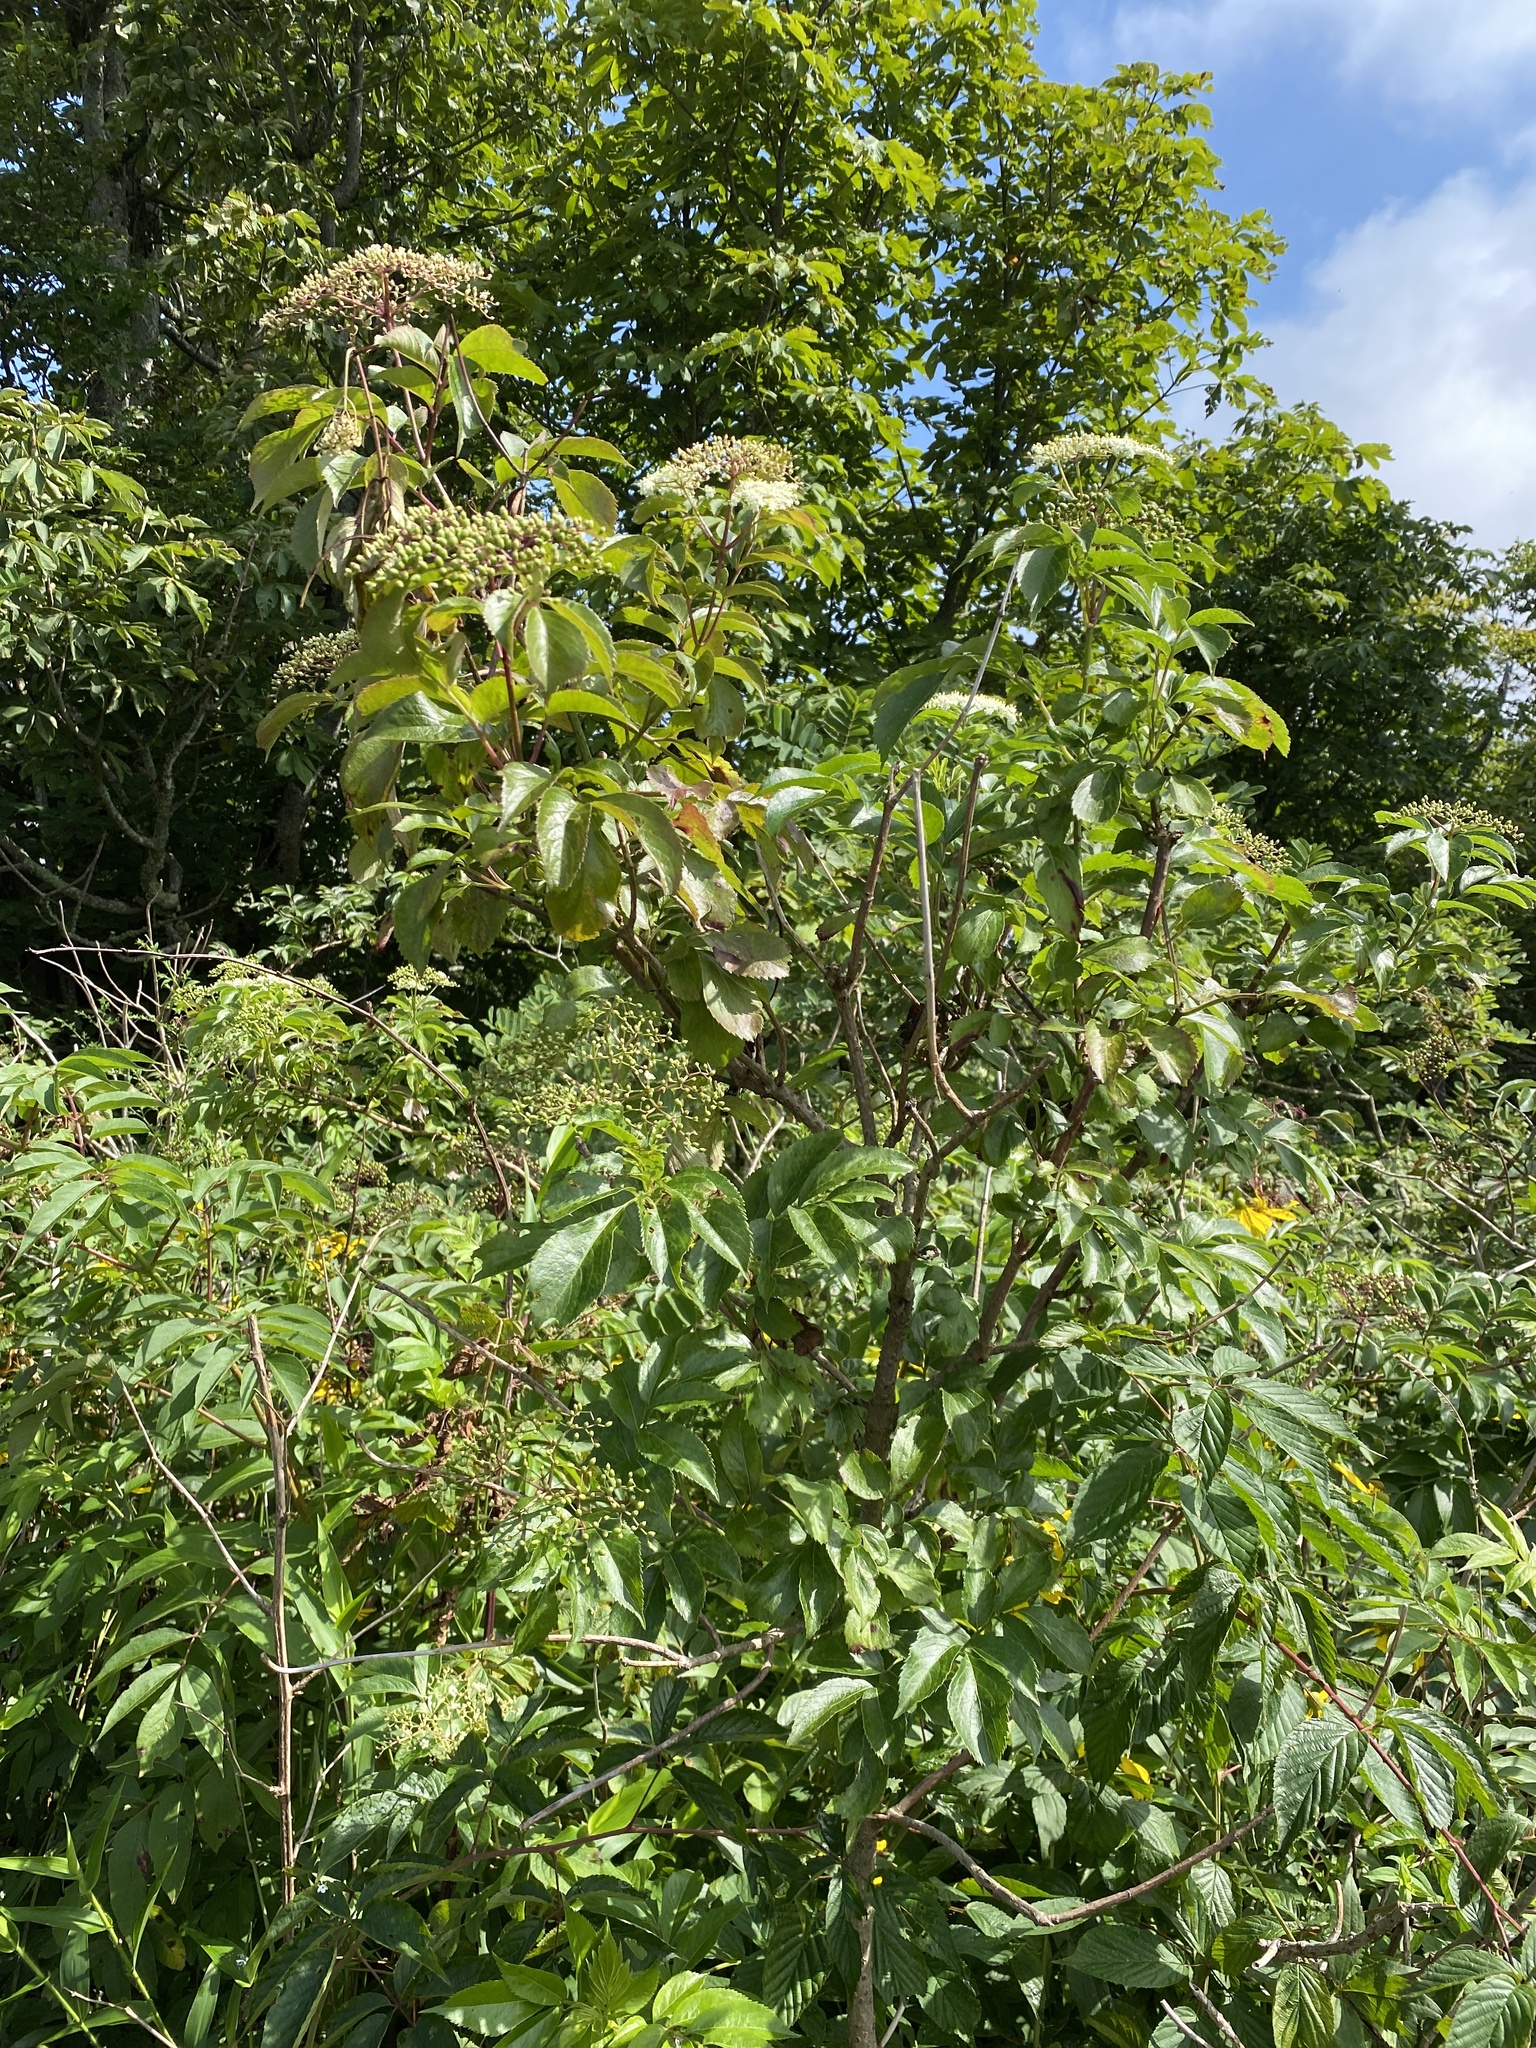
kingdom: Plantae
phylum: Tracheophyta
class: Magnoliopsida
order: Dipsacales
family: Viburnaceae
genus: Sambucus
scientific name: Sambucus canadensis
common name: American elder
